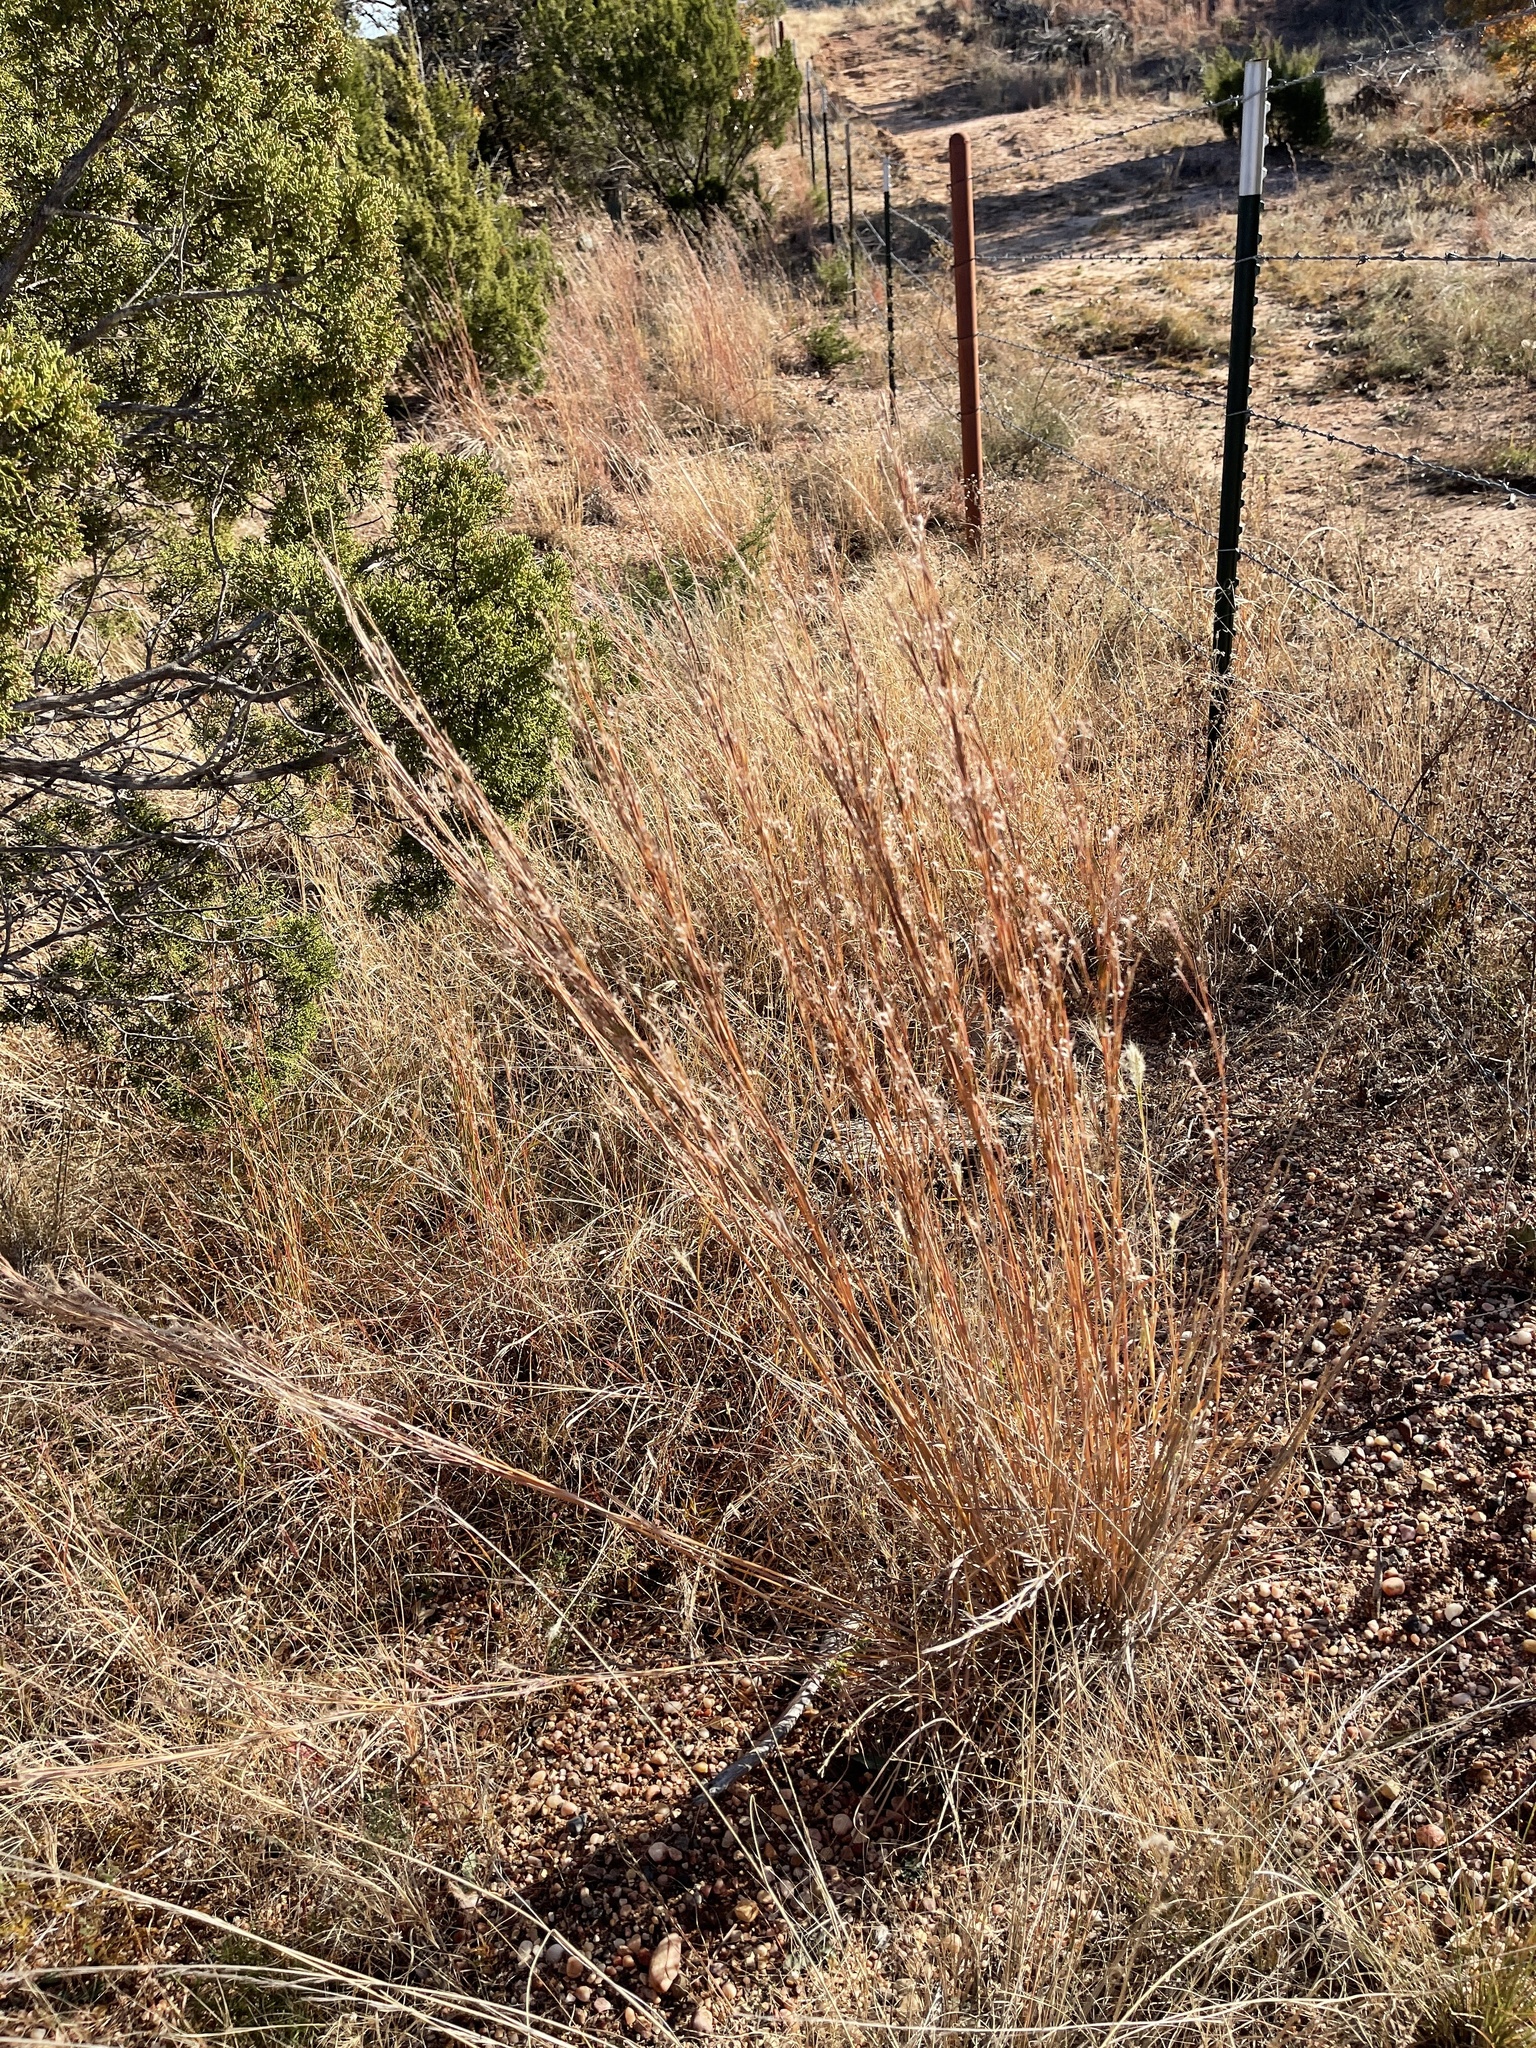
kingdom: Plantae
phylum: Tracheophyta
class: Liliopsida
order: Poales
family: Poaceae
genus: Schizachyrium
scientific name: Schizachyrium scoparium
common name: Little bluestem
